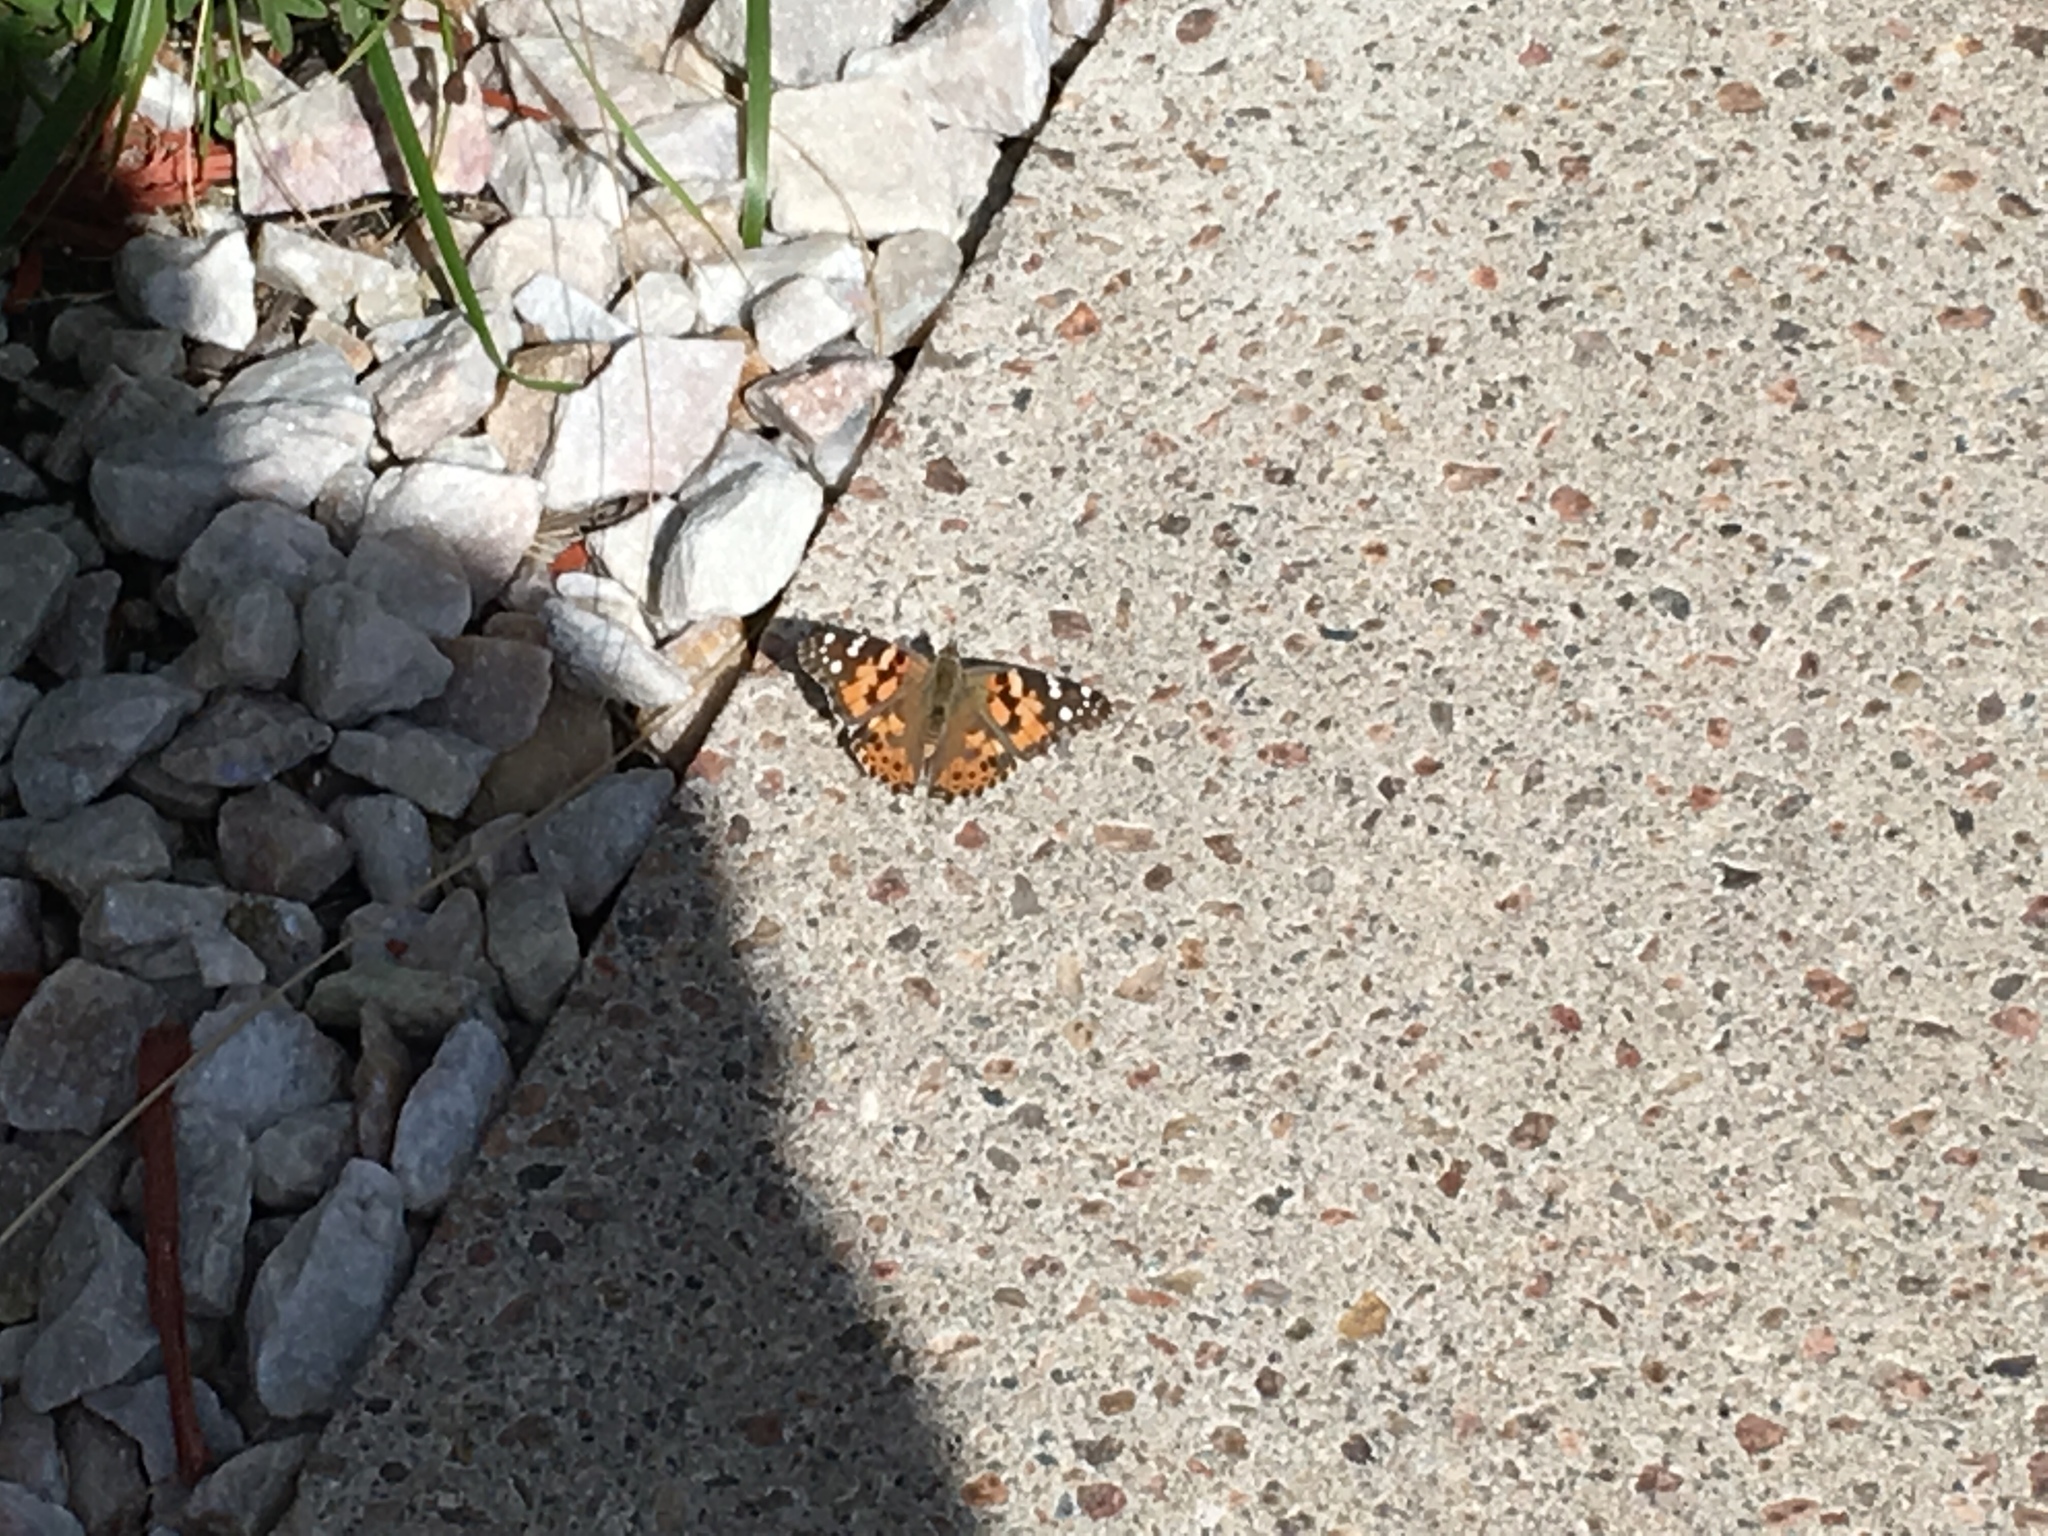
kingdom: Animalia
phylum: Arthropoda
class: Insecta
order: Lepidoptera
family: Nymphalidae
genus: Vanessa
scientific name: Vanessa cardui
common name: Painted lady
